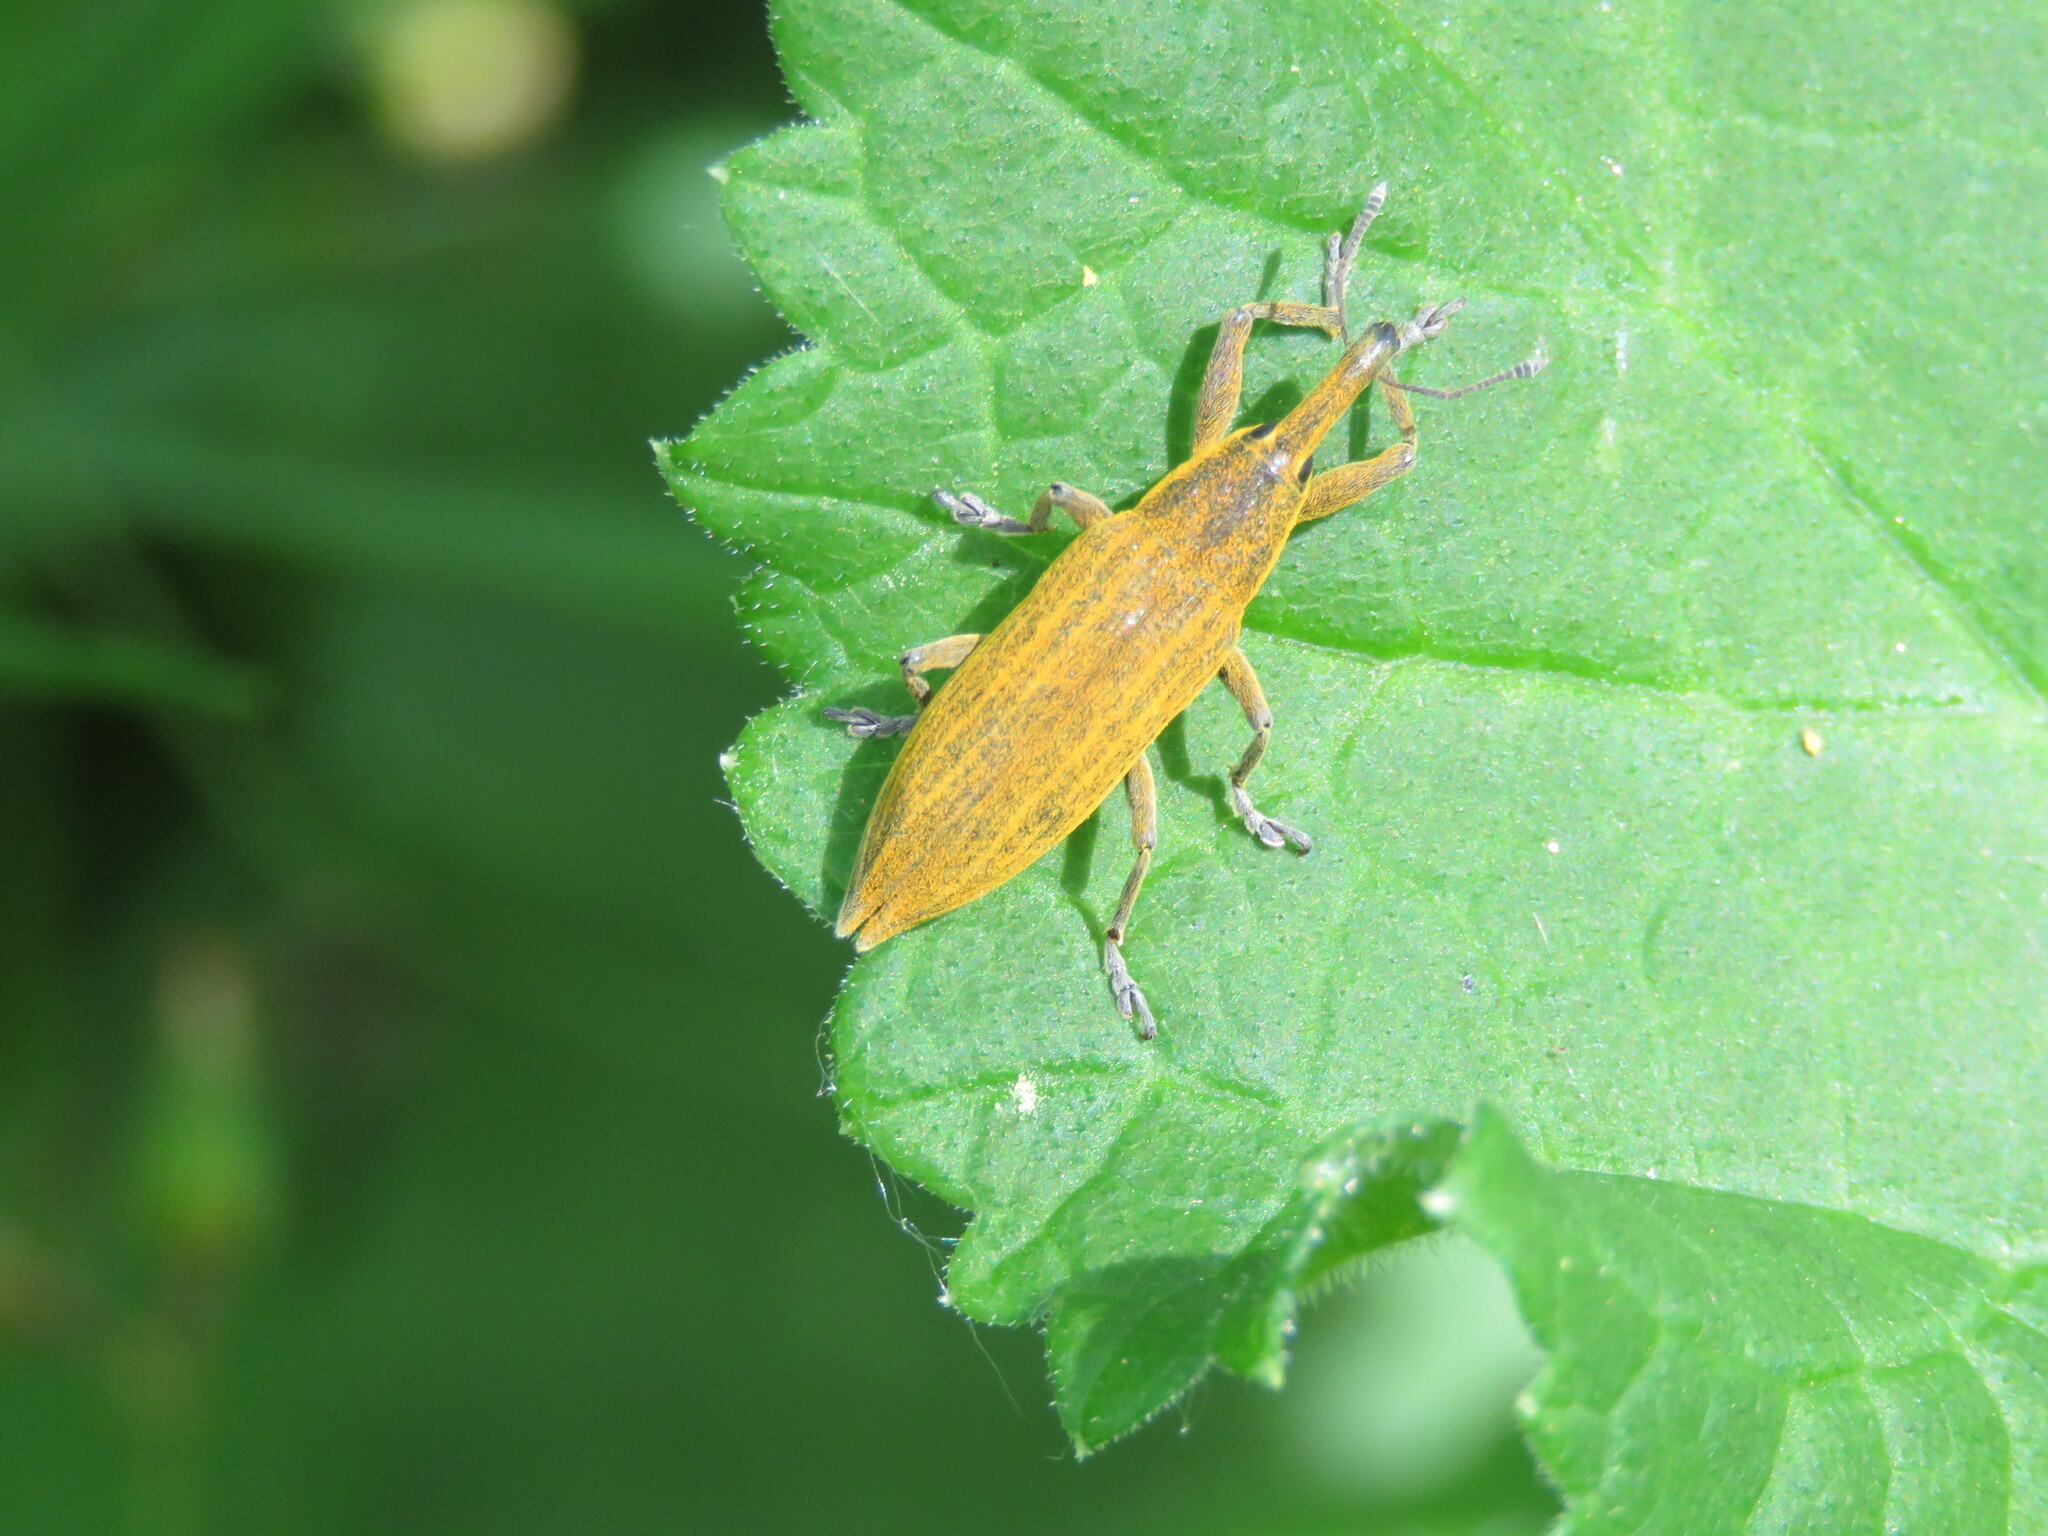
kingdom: Animalia
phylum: Arthropoda
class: Insecta
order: Coleoptera
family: Curculionidae
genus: Lixus
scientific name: Lixus iridis
